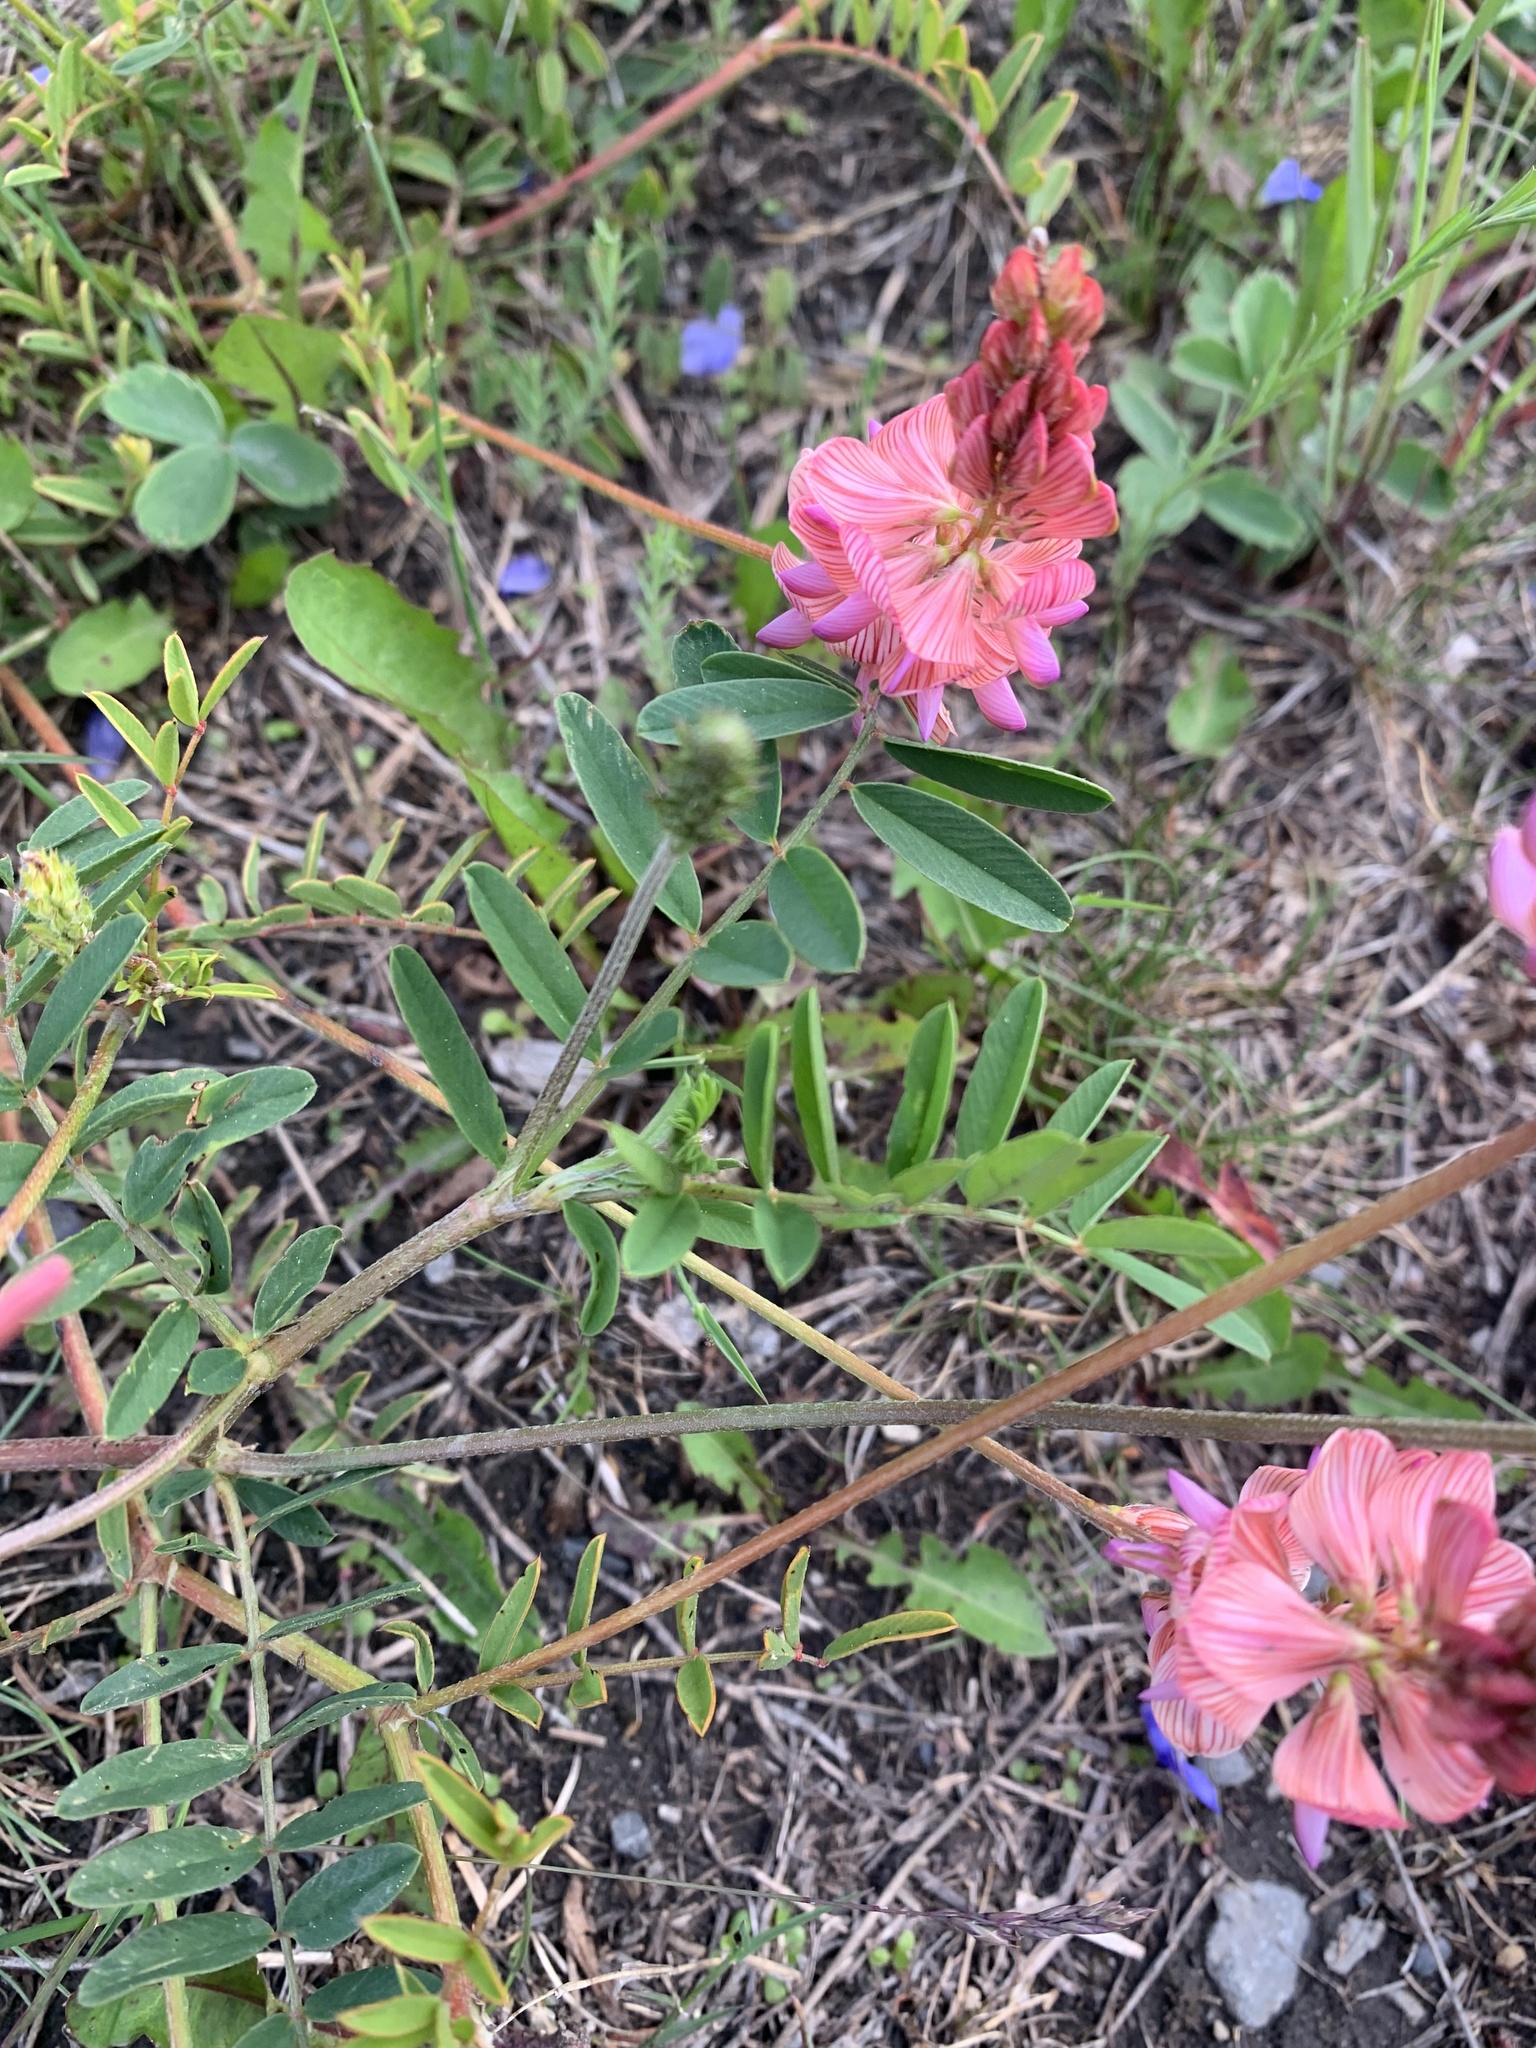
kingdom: Plantae
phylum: Tracheophyta
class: Magnoliopsida
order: Fabales
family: Fabaceae
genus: Onobrychis
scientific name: Onobrychis viciifolia
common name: Sainfoin
